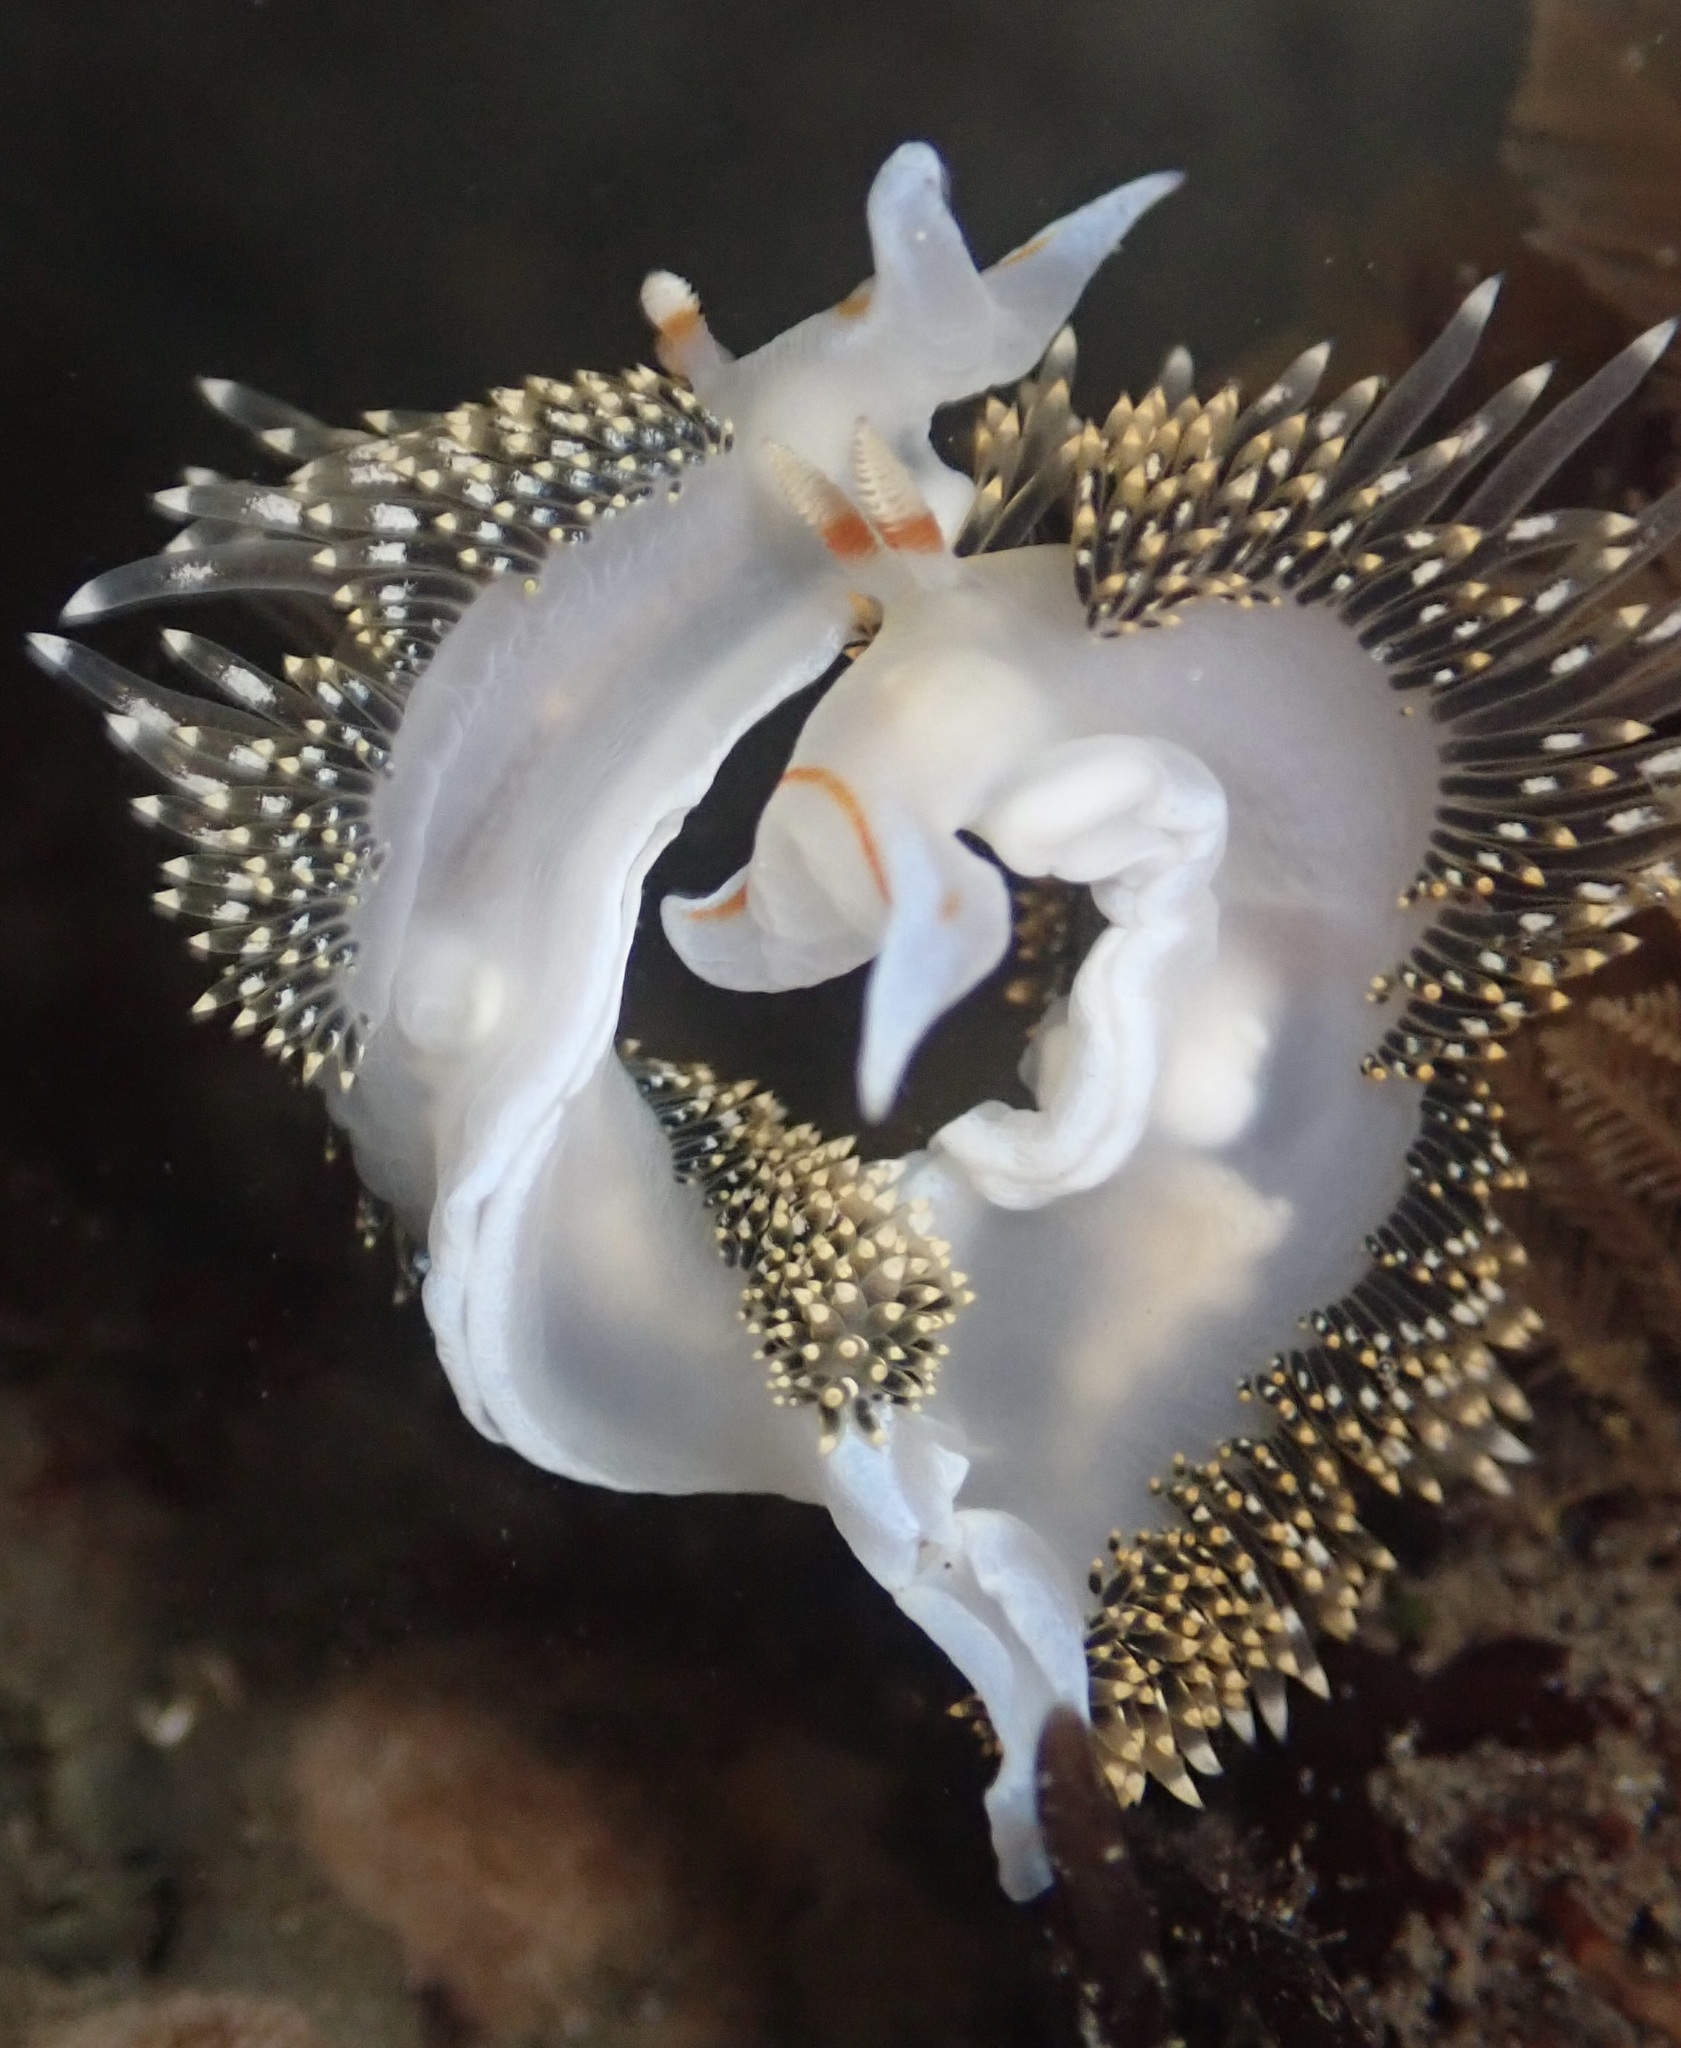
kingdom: Animalia
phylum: Mollusca
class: Gastropoda
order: Nudibranchia
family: Facelinidae
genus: Phidiana
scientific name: Phidiana hiltoni
